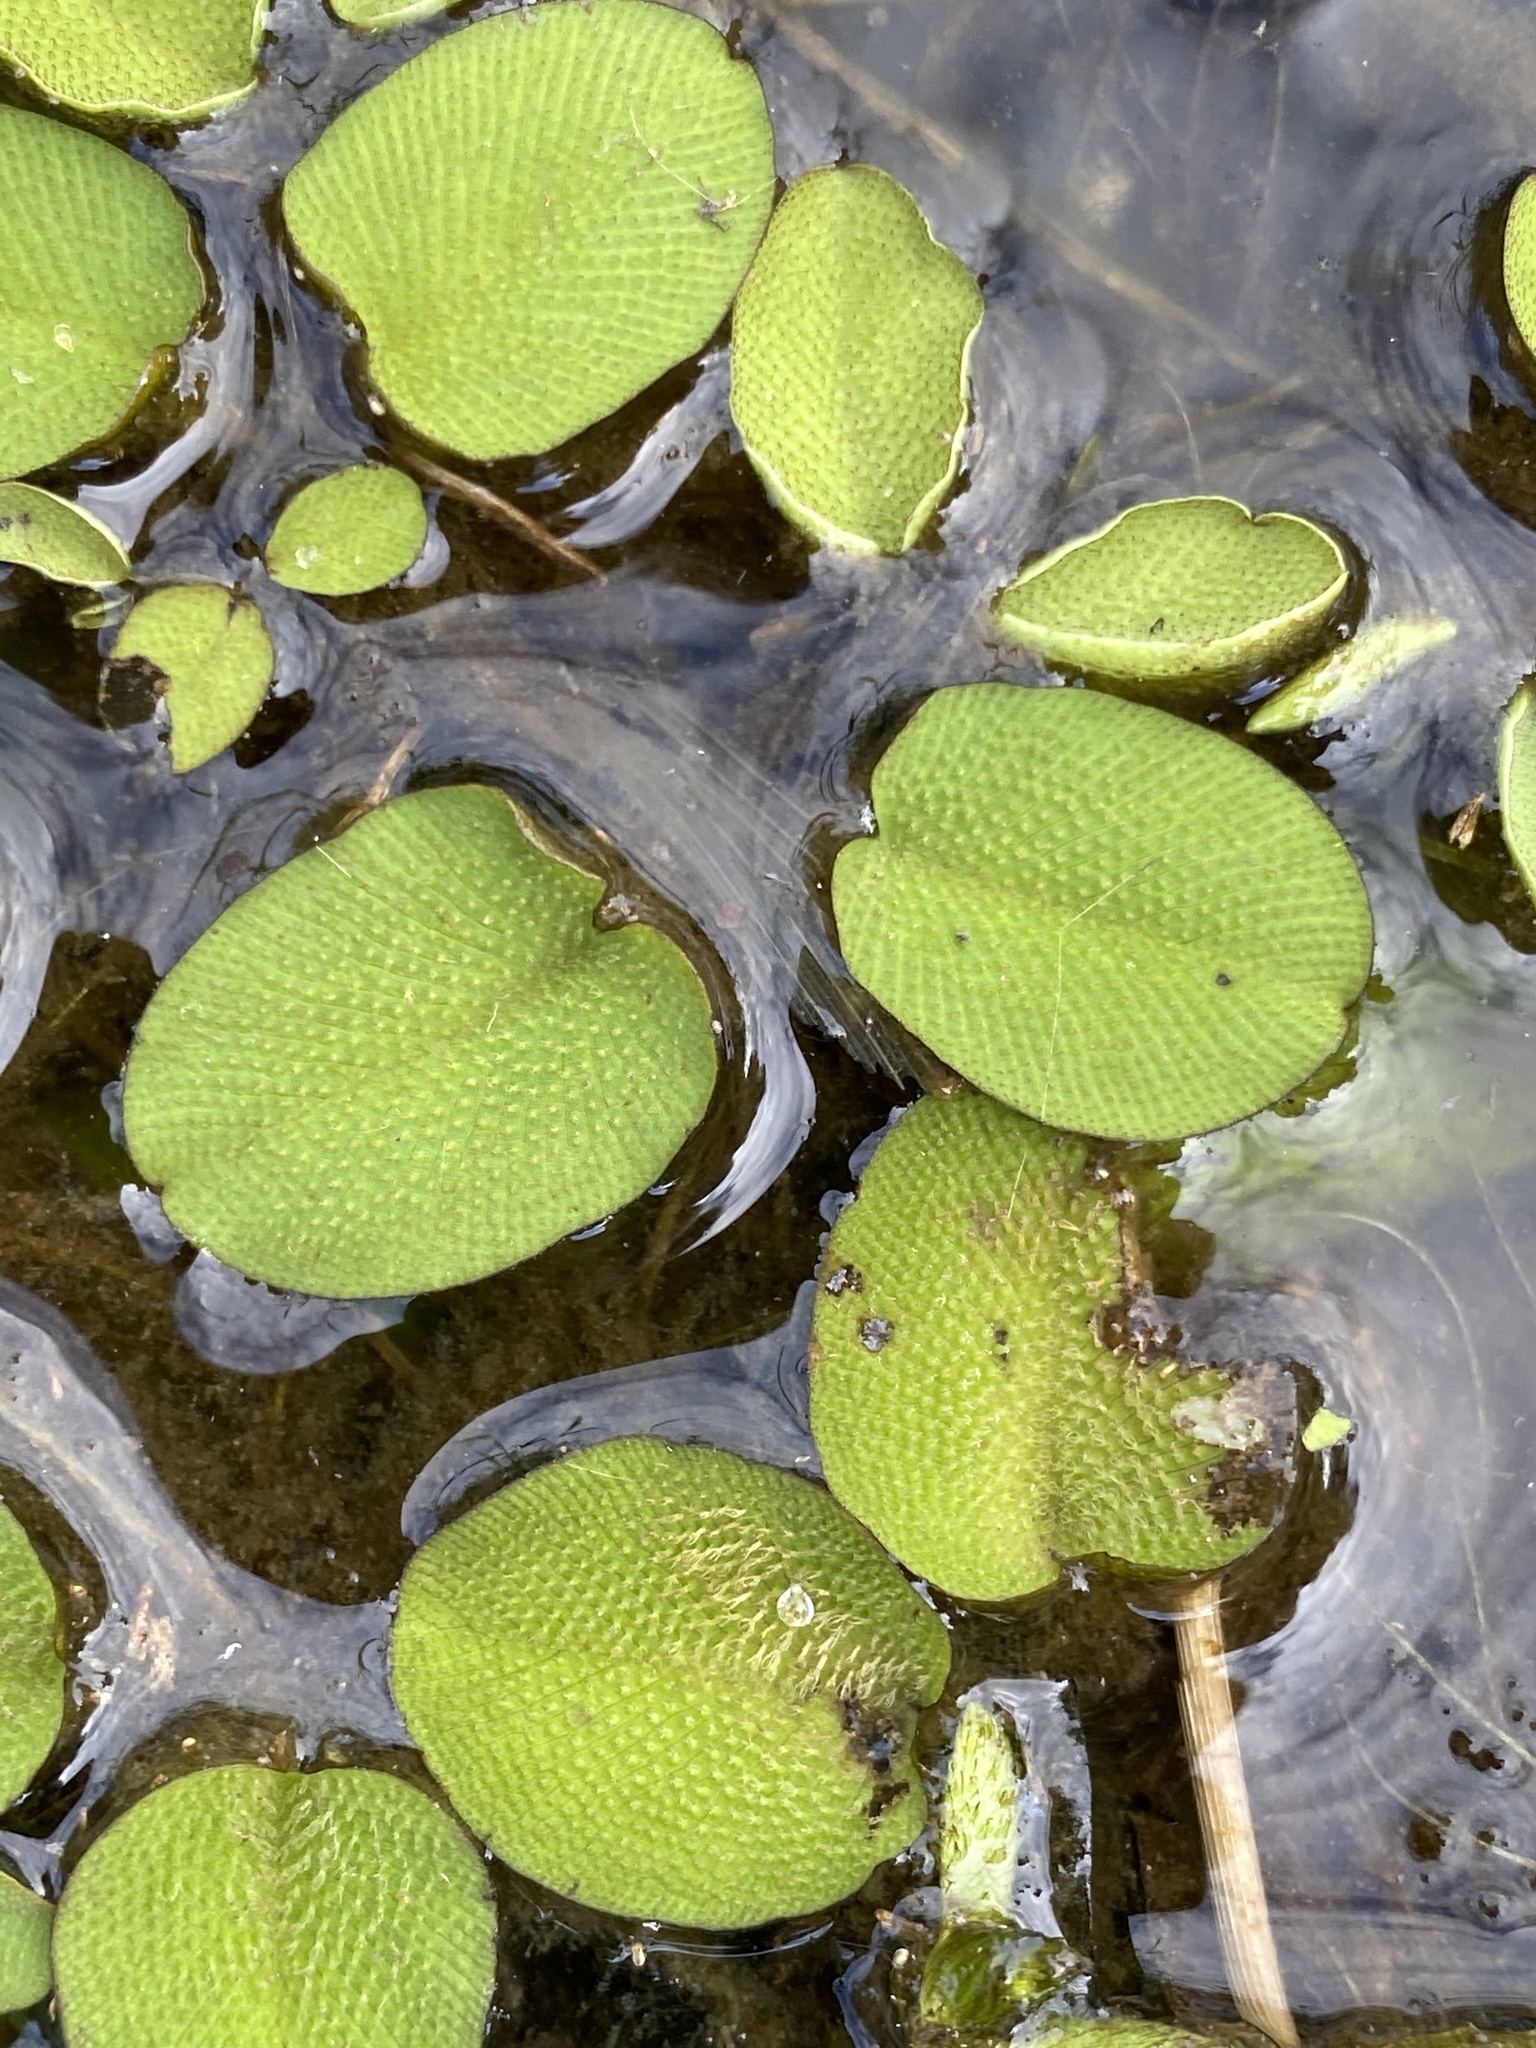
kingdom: Plantae
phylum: Tracheophyta
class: Polypodiopsida
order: Salviniales
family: Salviniaceae
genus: Salvinia
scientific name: Salvinia molesta
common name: Kariba weed
